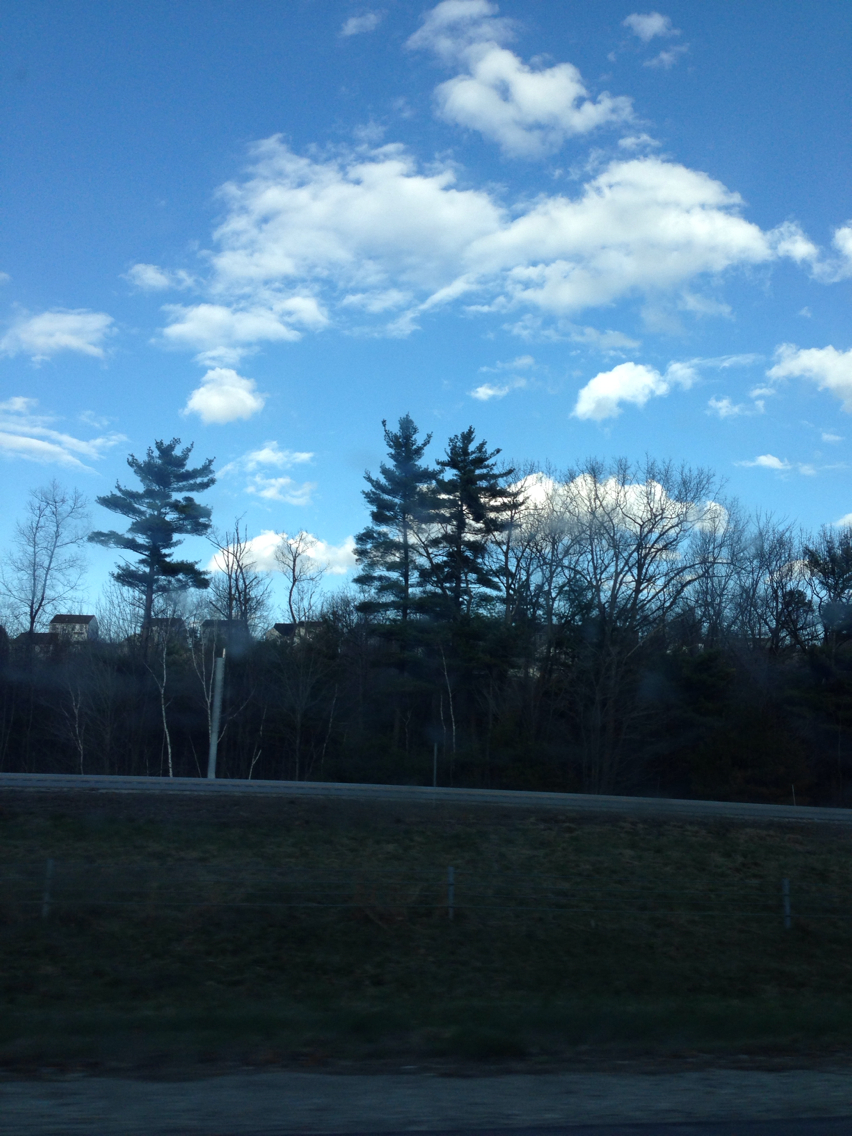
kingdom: Plantae
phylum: Tracheophyta
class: Pinopsida
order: Pinales
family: Pinaceae
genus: Pinus
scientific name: Pinus strobus
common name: Weymouth pine
